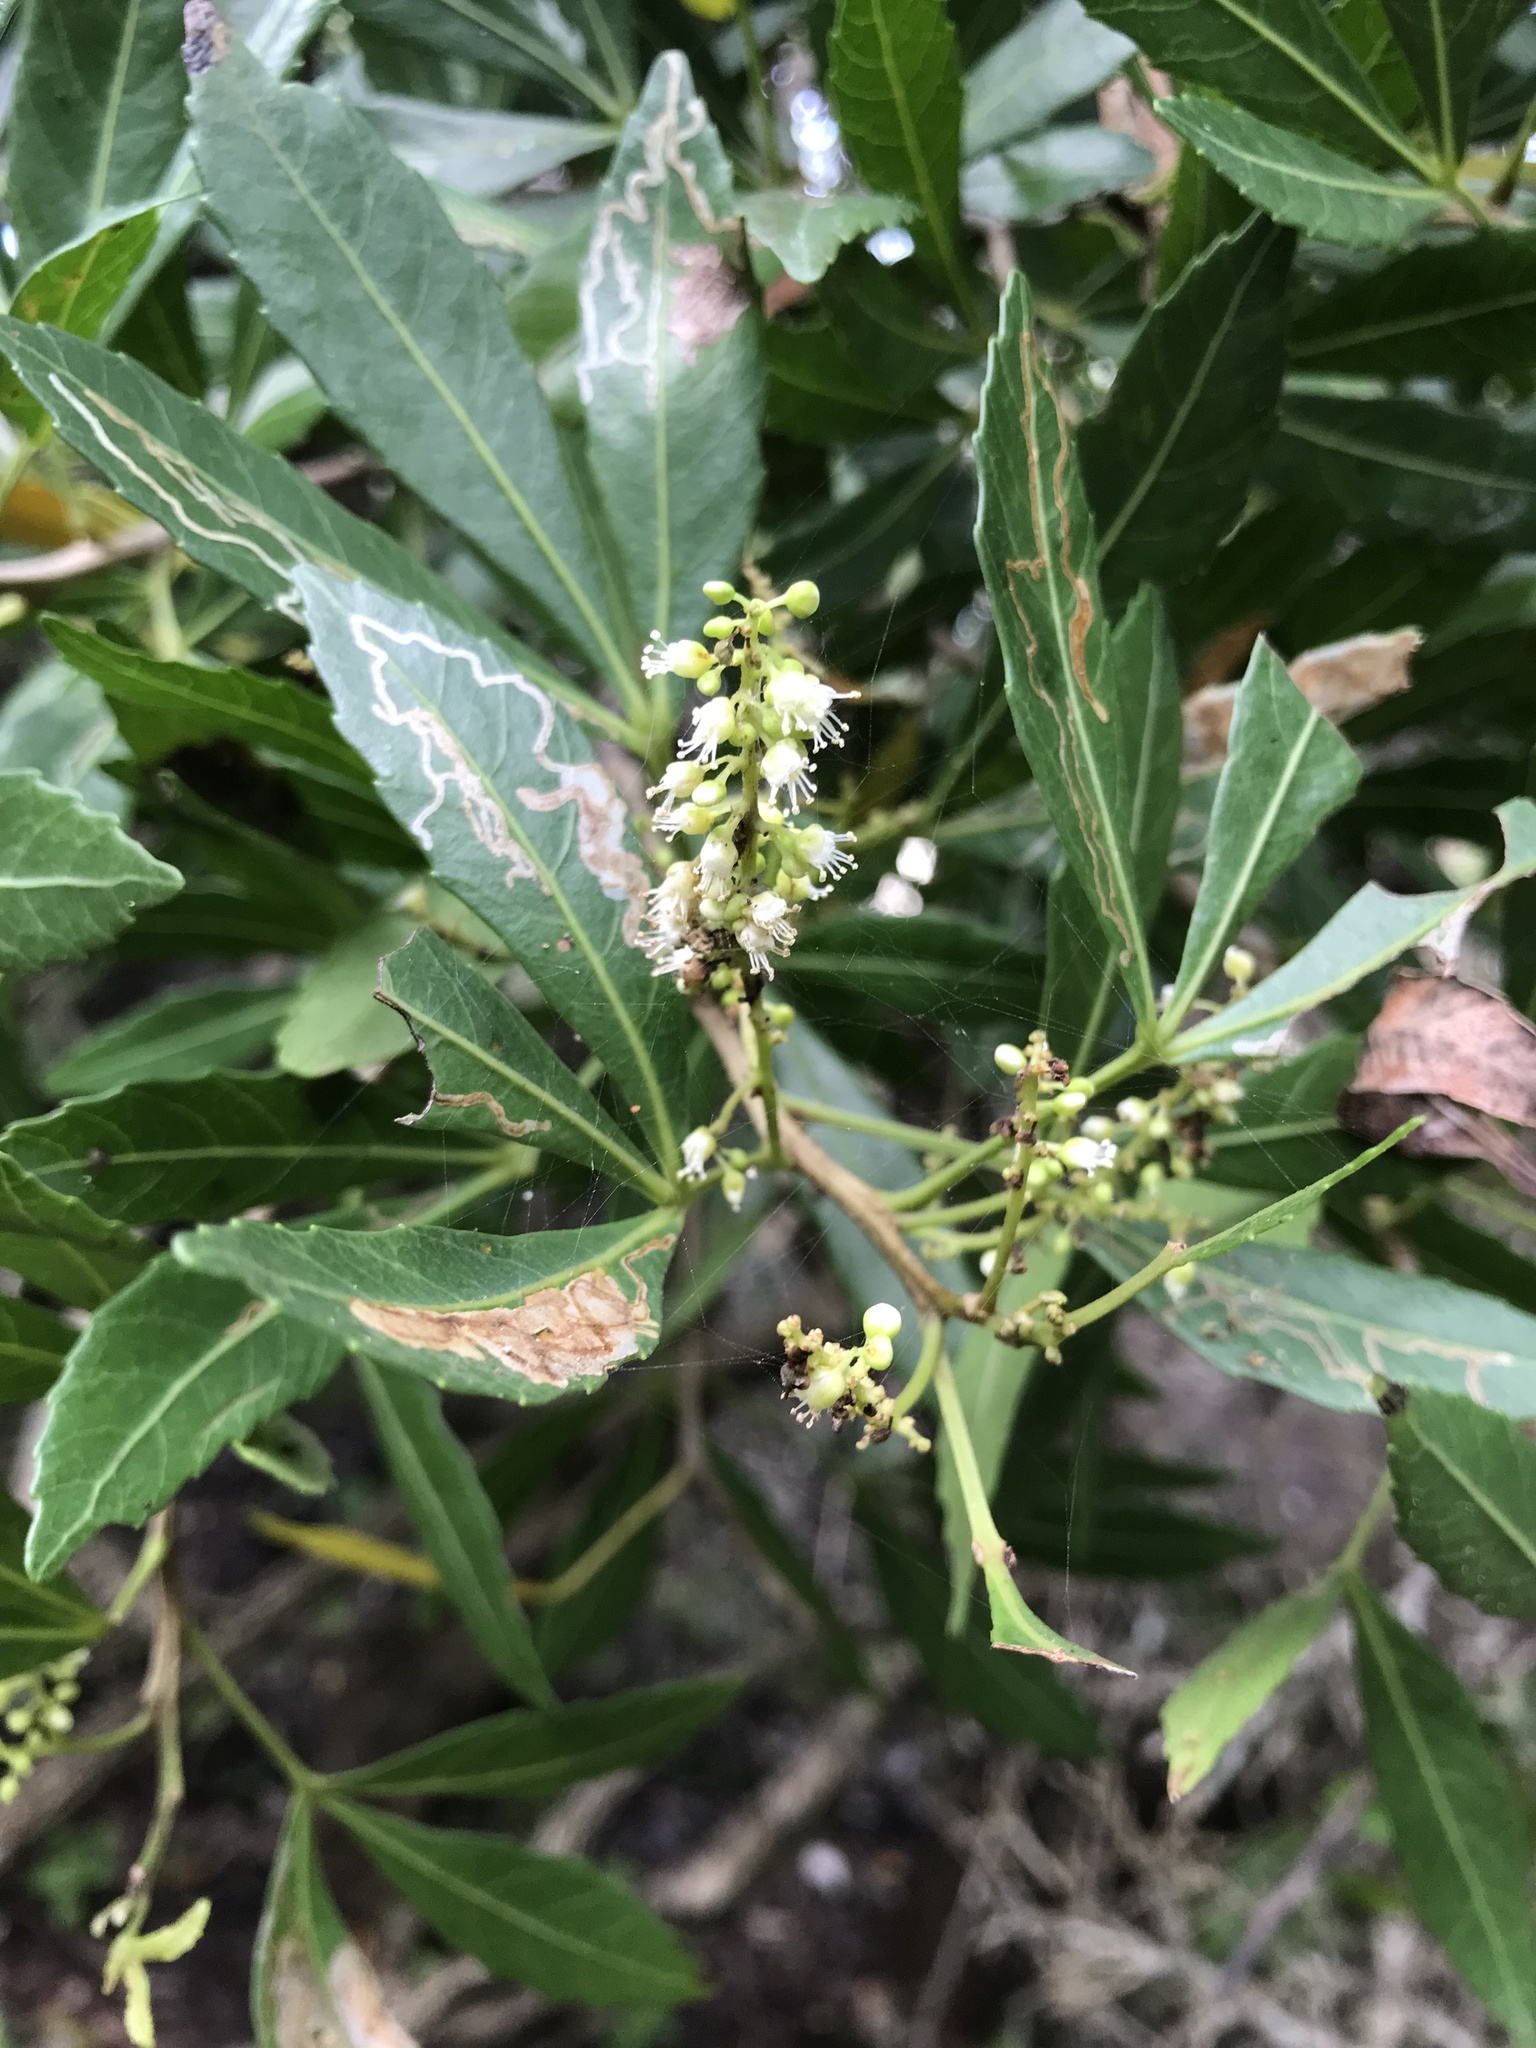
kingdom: Plantae
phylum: Tracheophyta
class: Magnoliopsida
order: Sapindales
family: Sapindaceae
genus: Allophylus
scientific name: Allophylus natalensis
